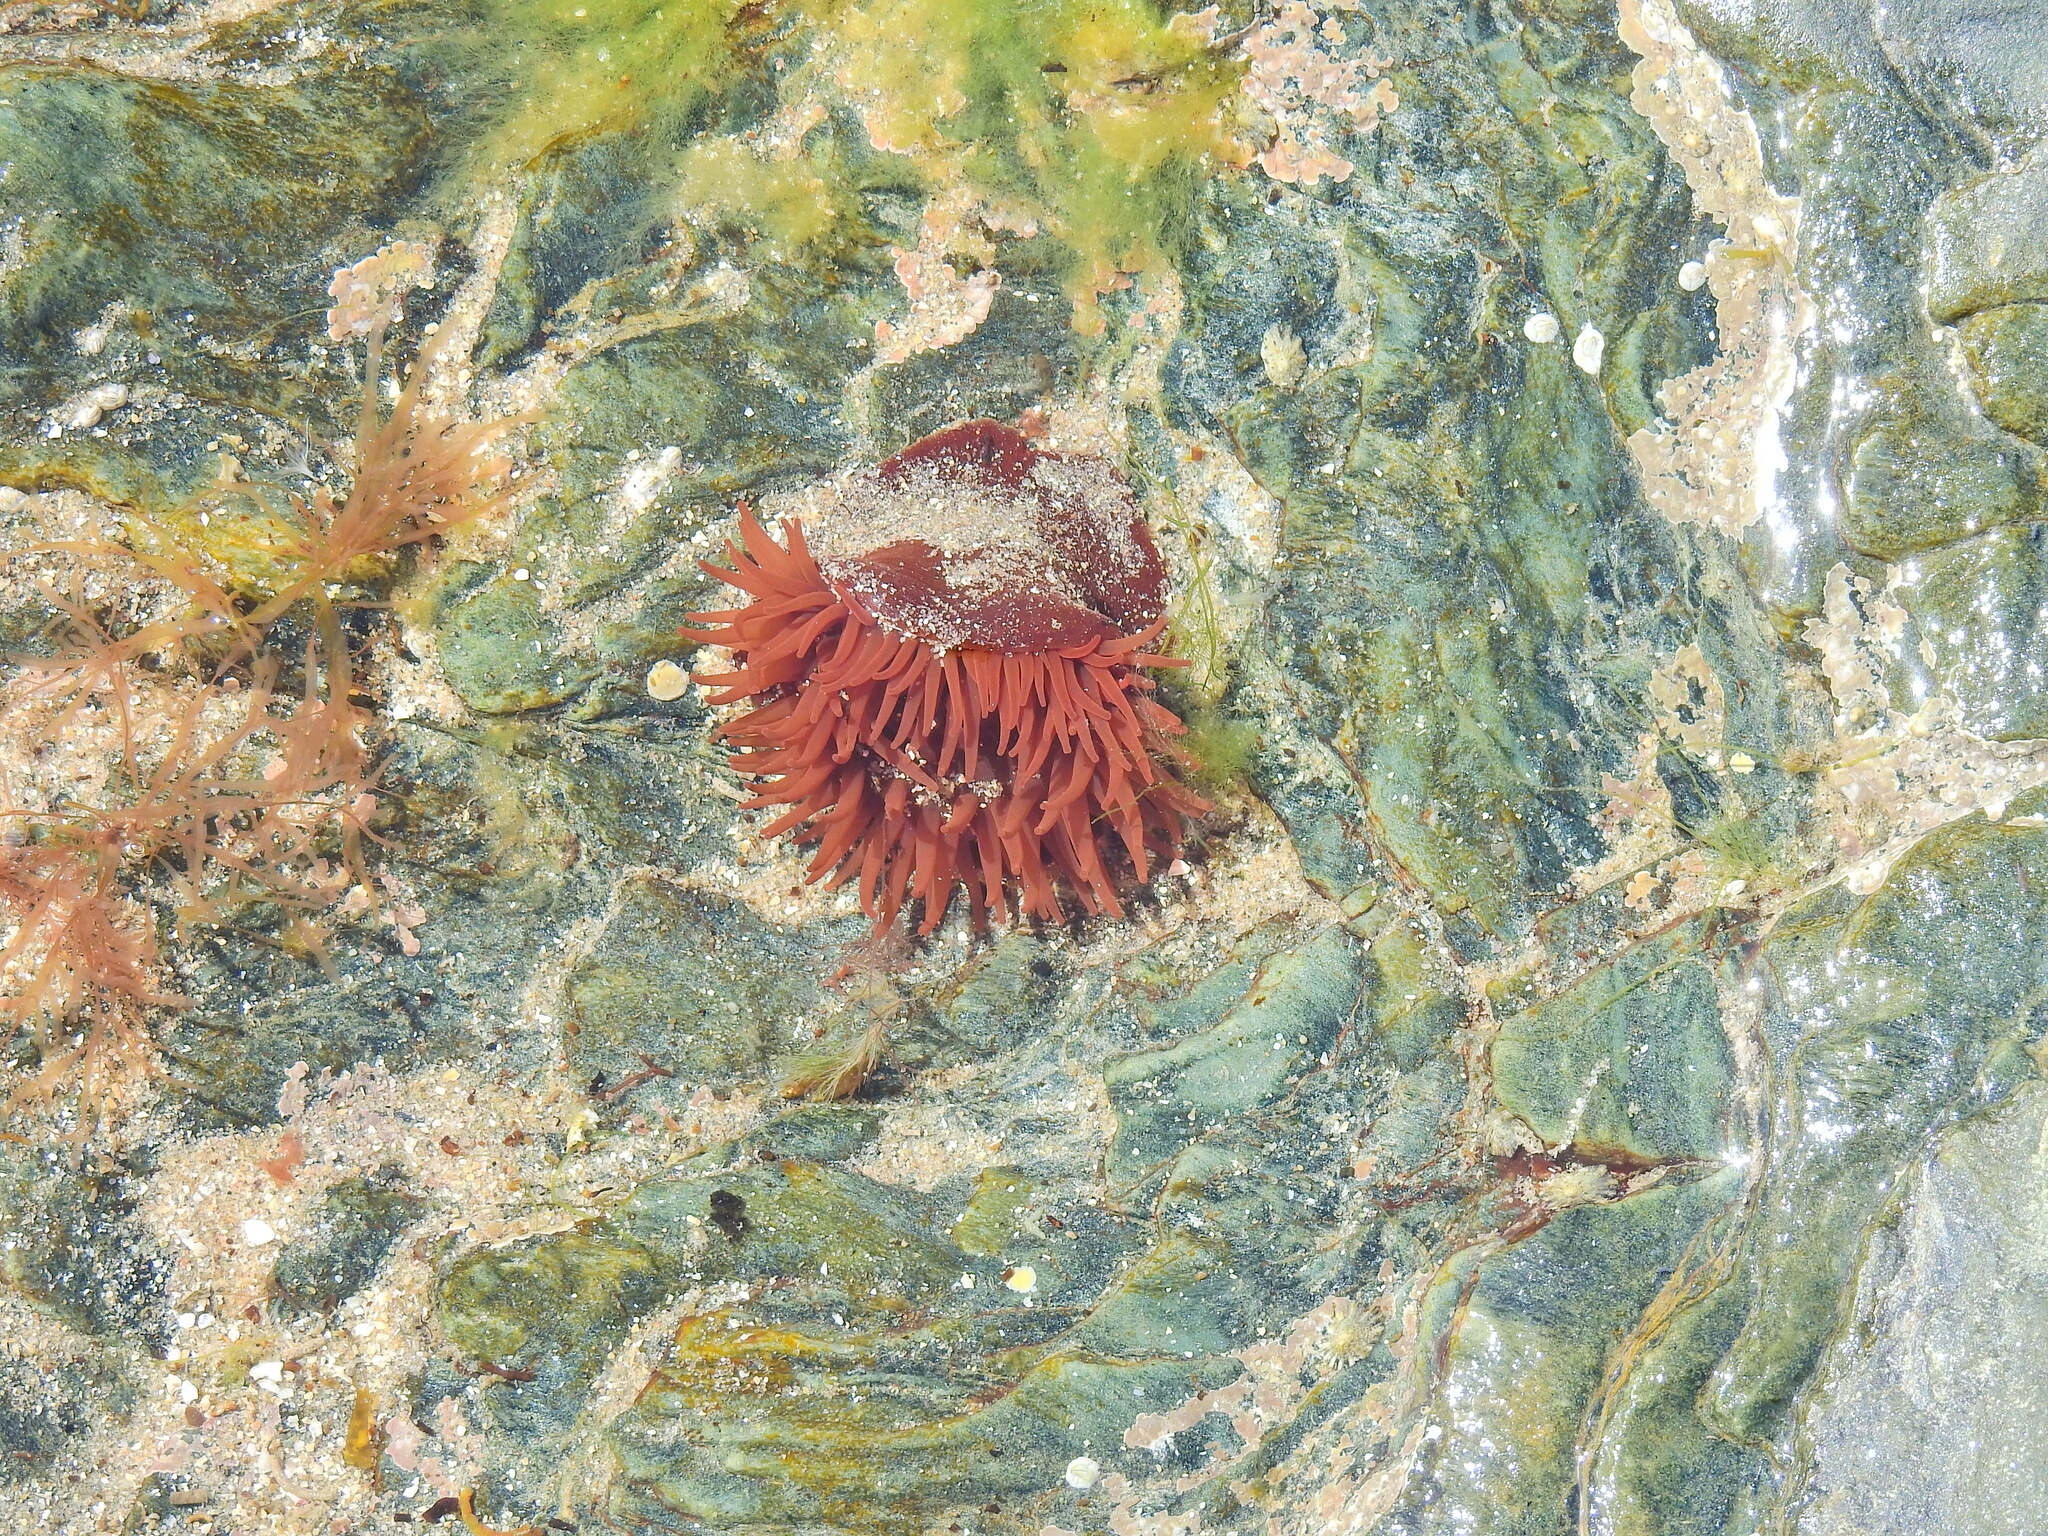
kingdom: Animalia
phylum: Cnidaria
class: Anthozoa
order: Actiniaria
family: Actiniidae
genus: Actinia
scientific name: Actinia equina
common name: Beadlet anemone
